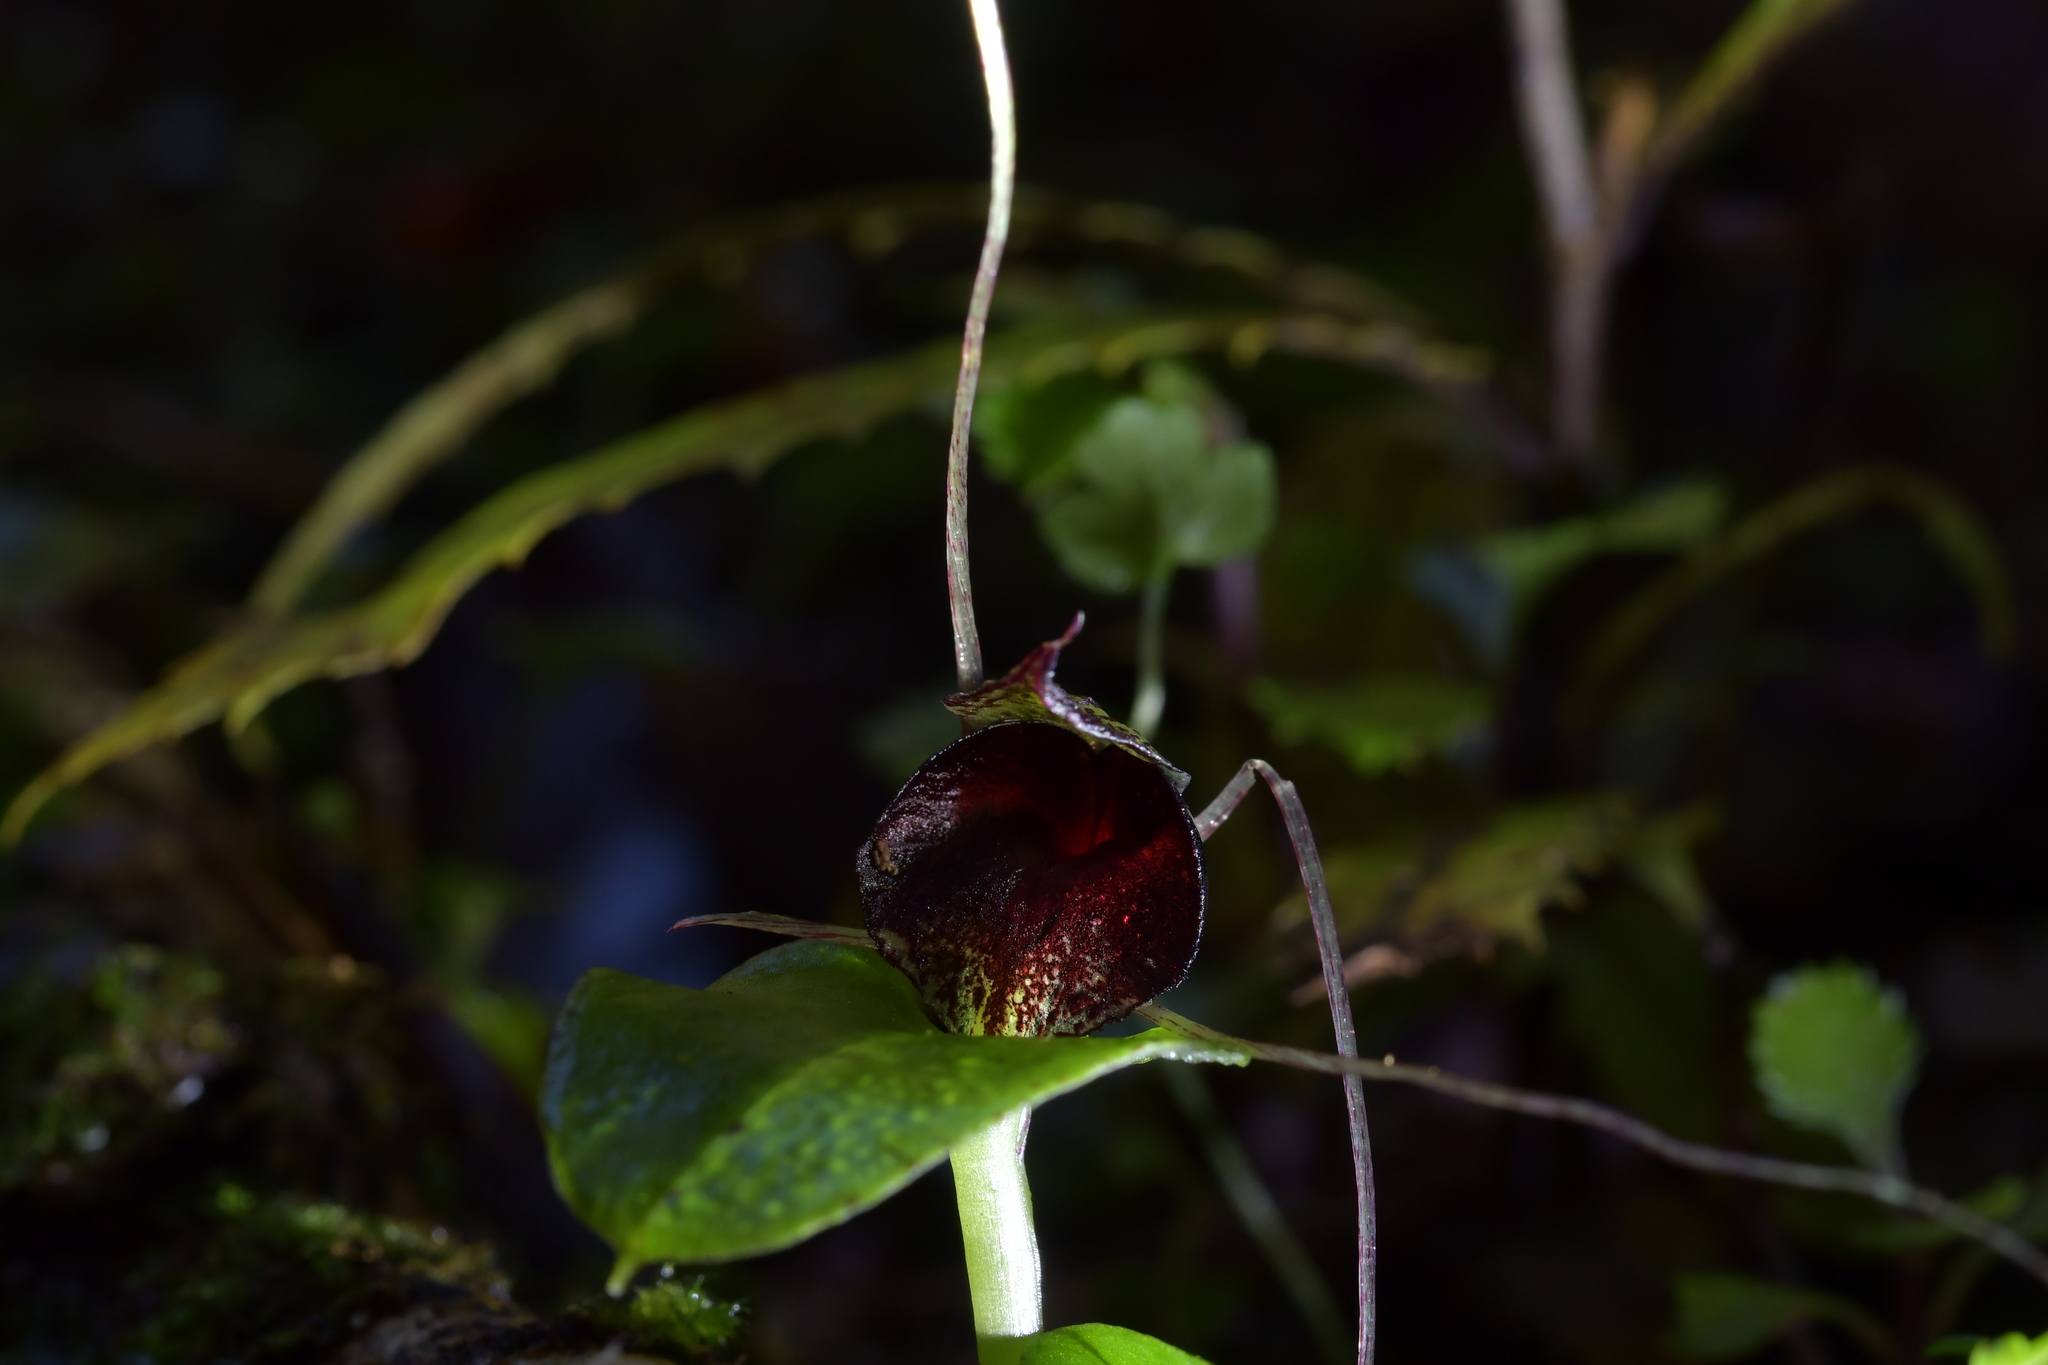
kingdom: Plantae
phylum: Tracheophyta
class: Liliopsida
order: Asparagales
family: Orchidaceae
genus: Corybas
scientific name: Corybas iridescens
